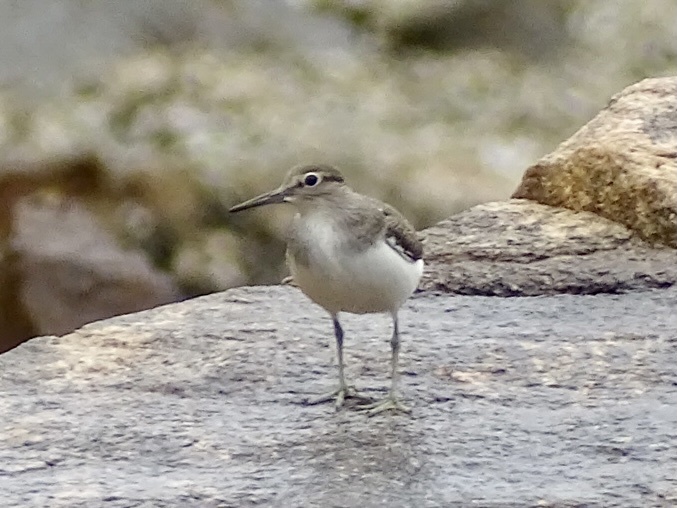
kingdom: Animalia
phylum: Chordata
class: Aves
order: Charadriiformes
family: Scolopacidae
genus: Actitis
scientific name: Actitis hypoleucos
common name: Common sandpiper
